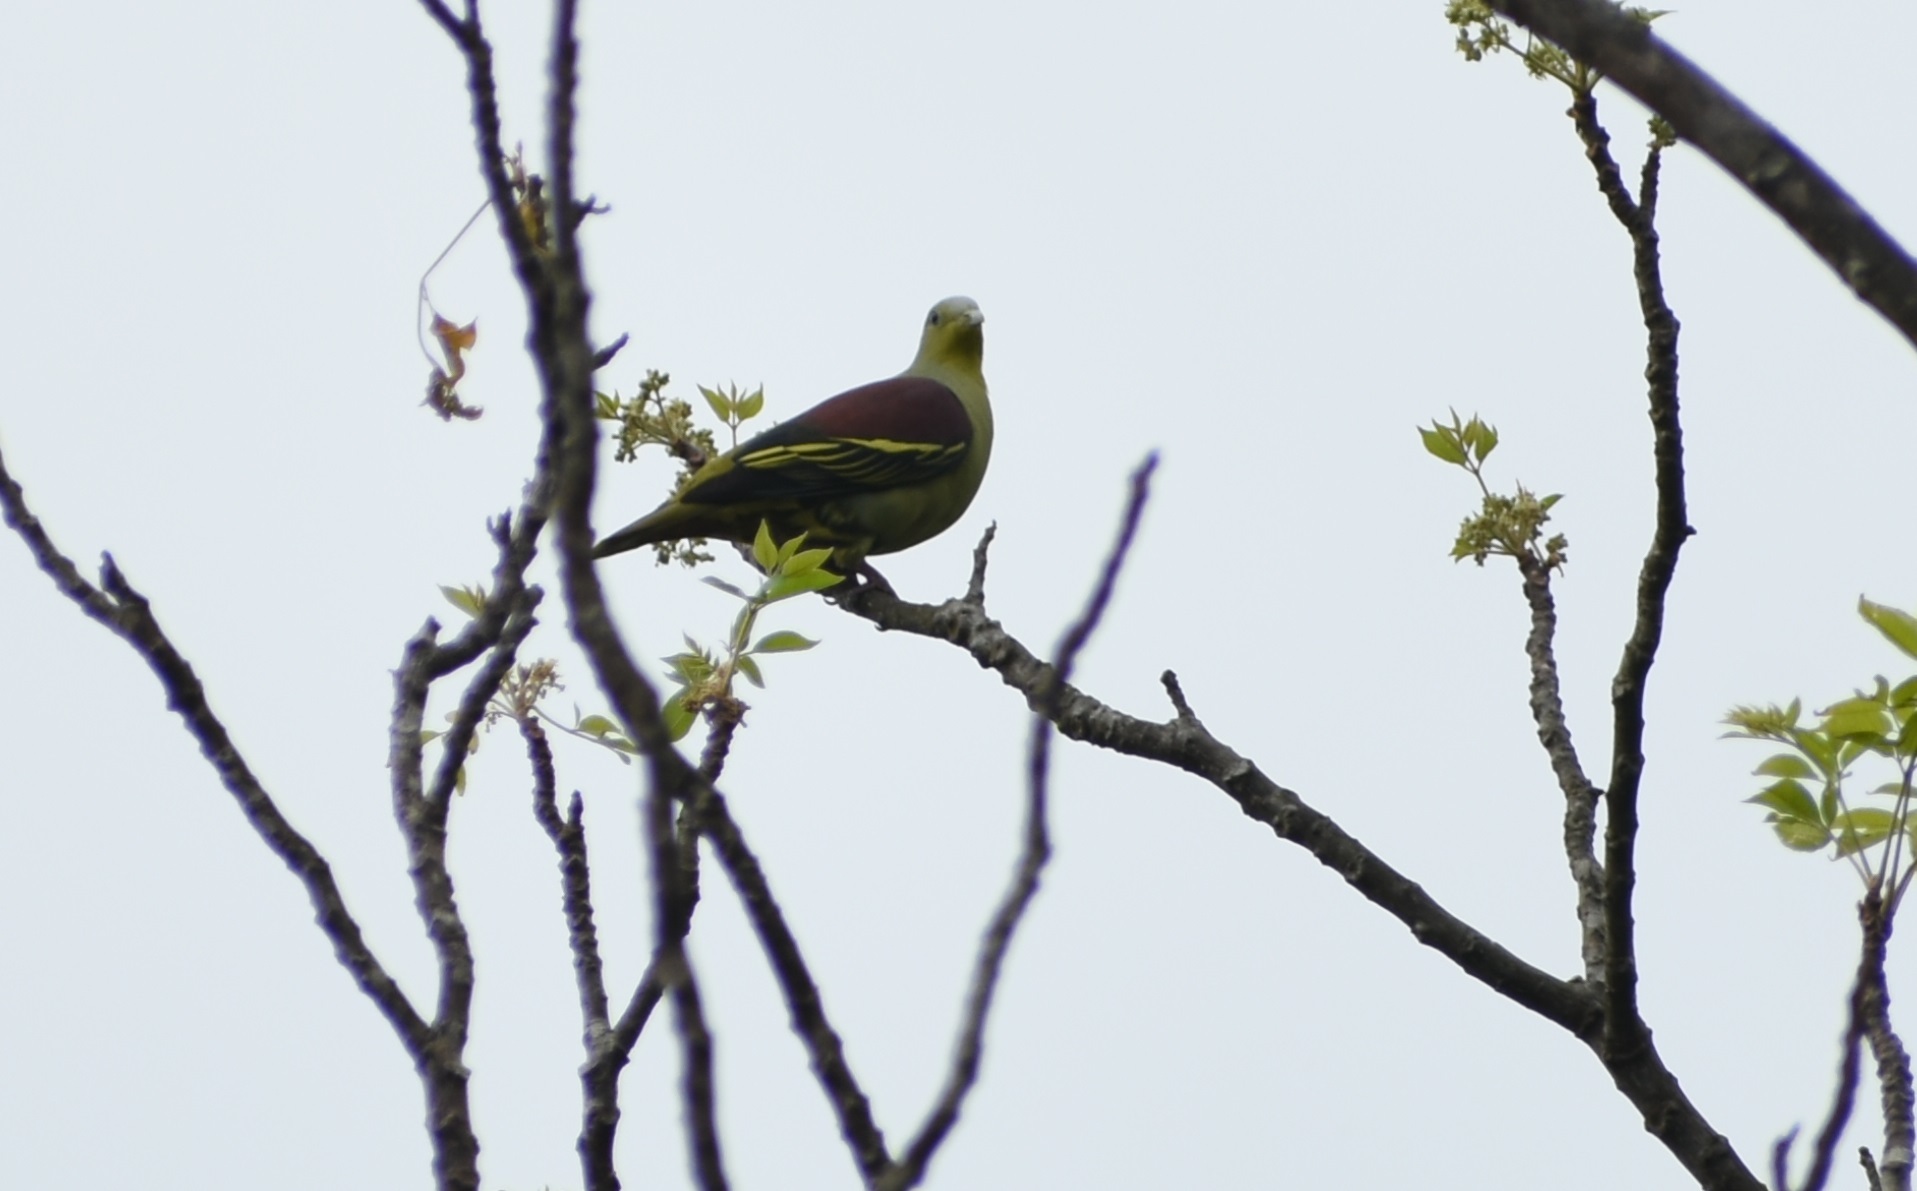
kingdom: Animalia
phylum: Chordata
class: Aves
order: Columbiformes
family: Columbidae
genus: Treron
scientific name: Treron affinis
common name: Grey-fronted green pigeon
